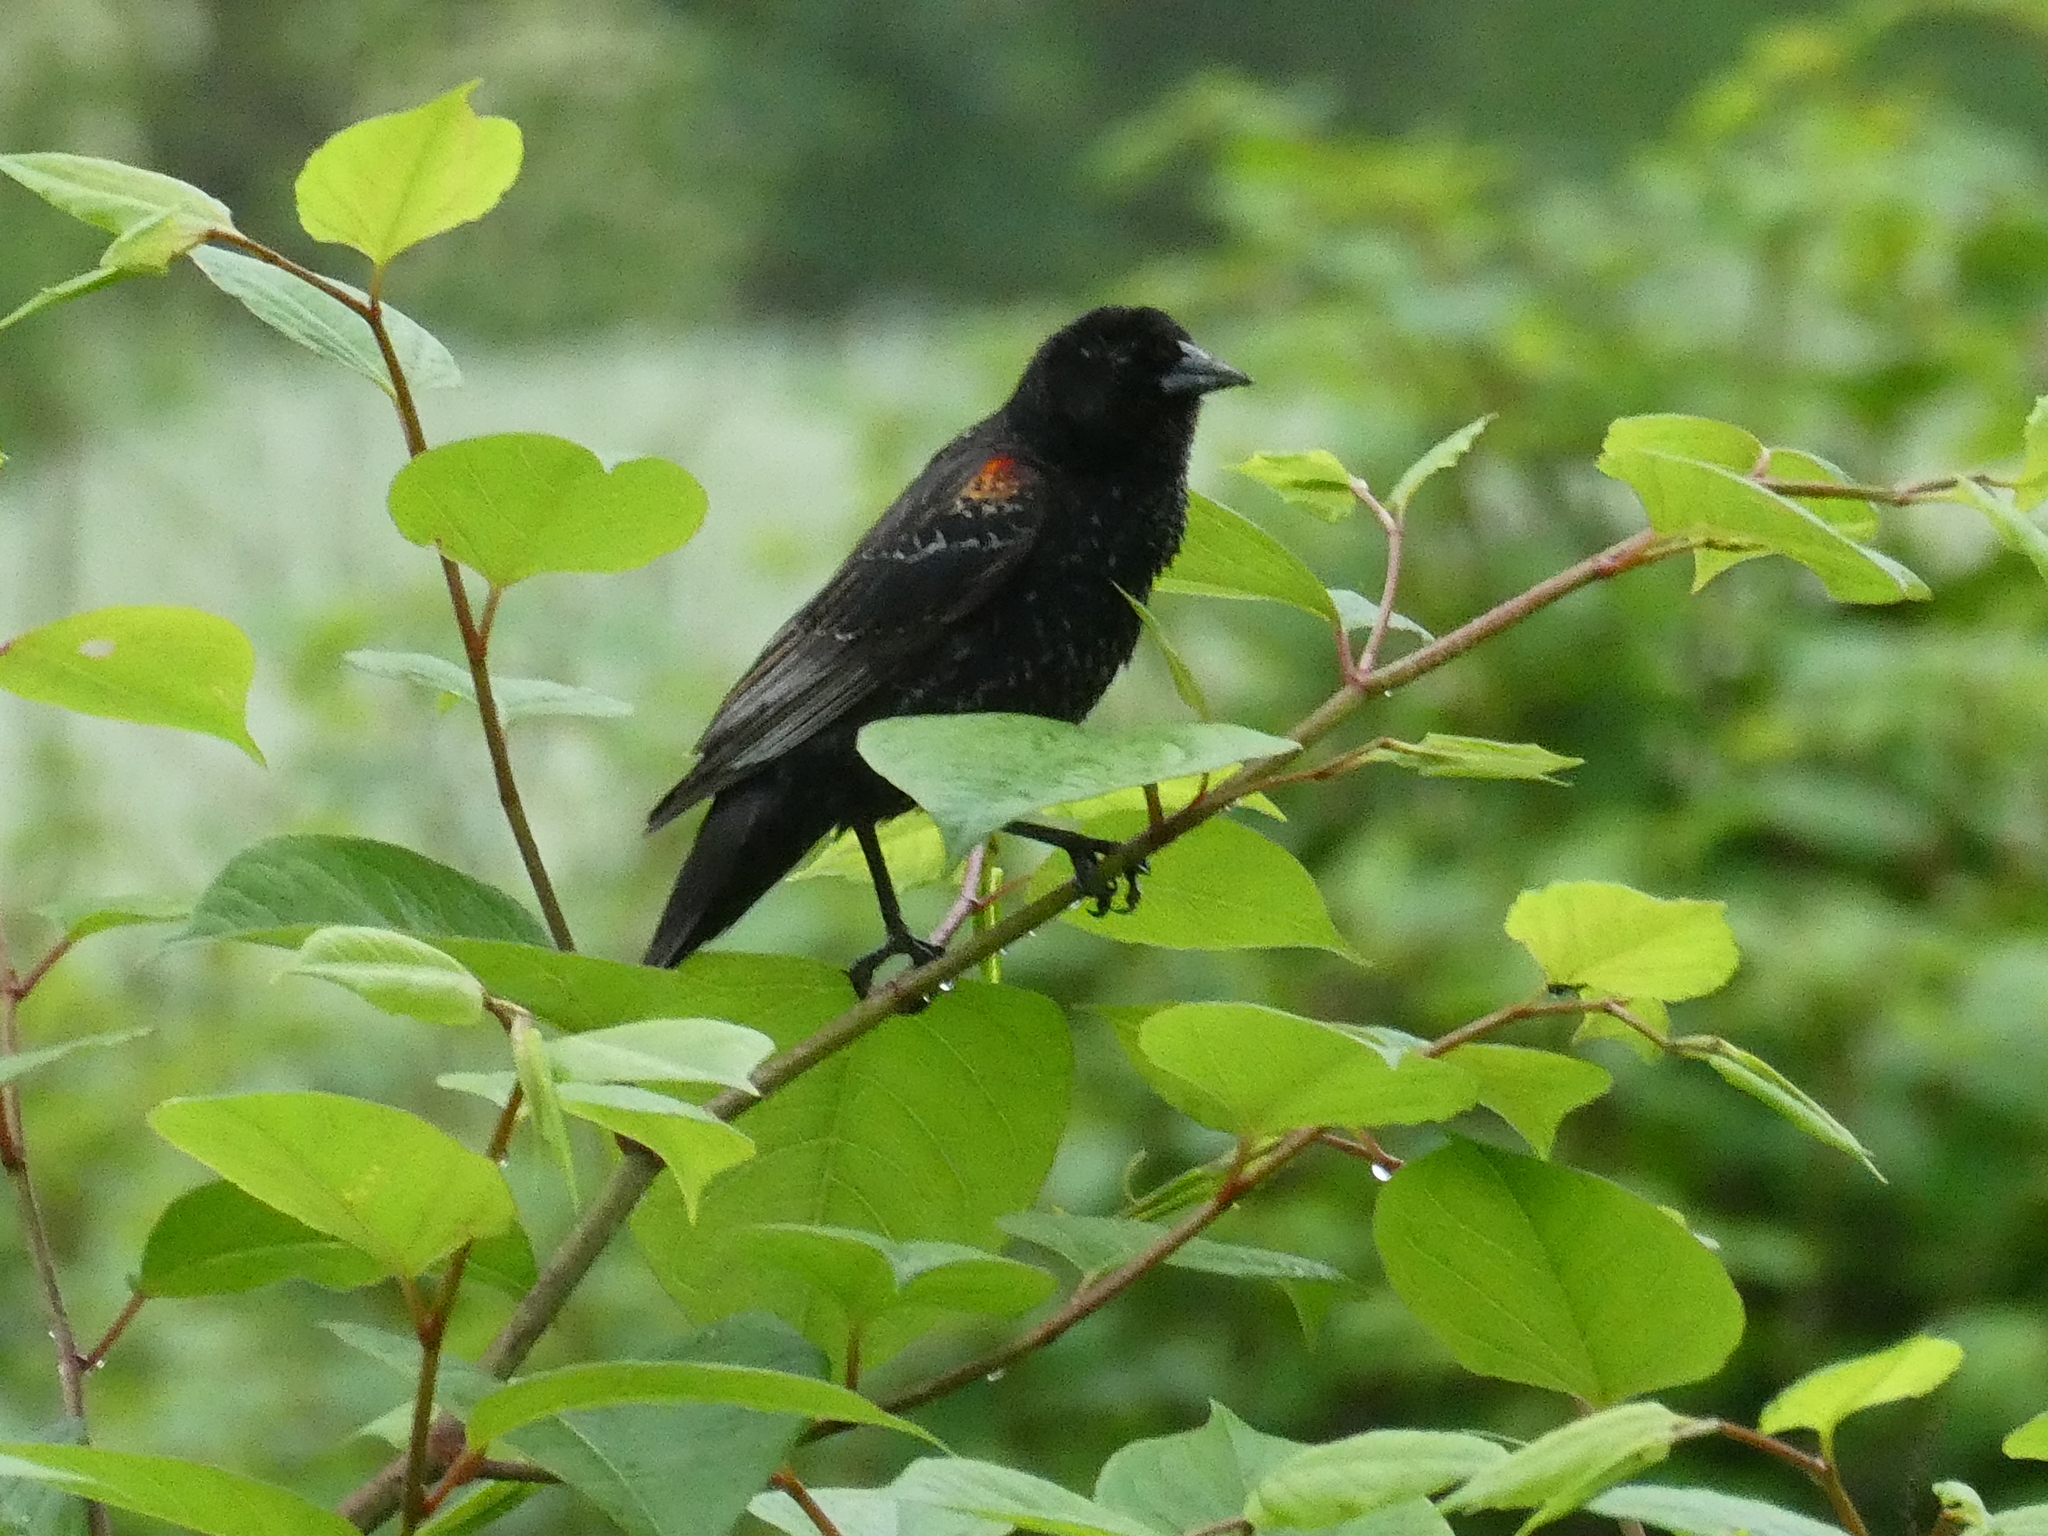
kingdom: Animalia
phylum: Chordata
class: Aves
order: Passeriformes
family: Icteridae
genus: Agelaius
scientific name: Agelaius phoeniceus
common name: Red-winged blackbird
